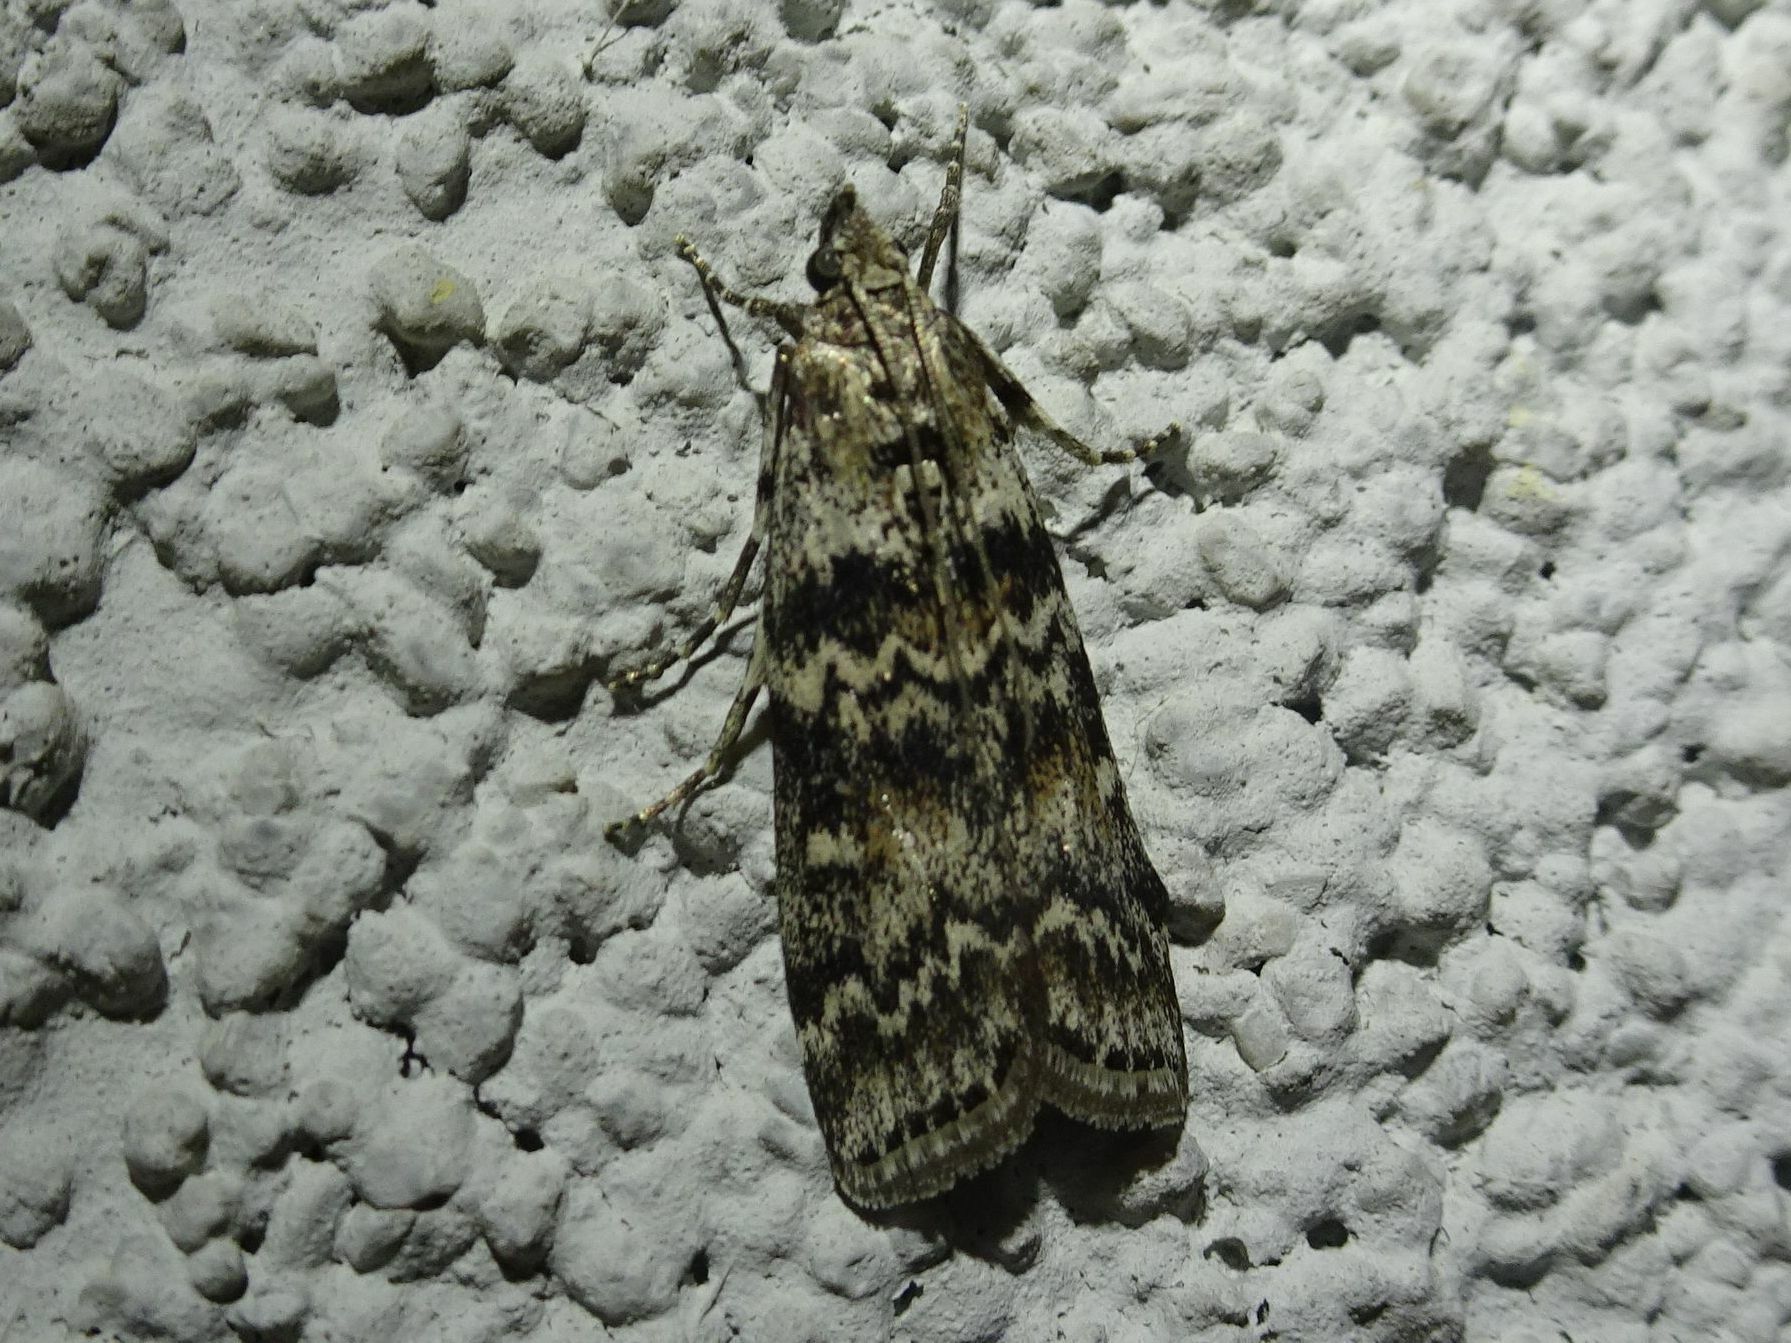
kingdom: Animalia
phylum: Arthropoda
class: Insecta
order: Lepidoptera
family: Pyralidae
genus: Dioryctria
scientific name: Dioryctria abietella
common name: Dark pine knot-horn
